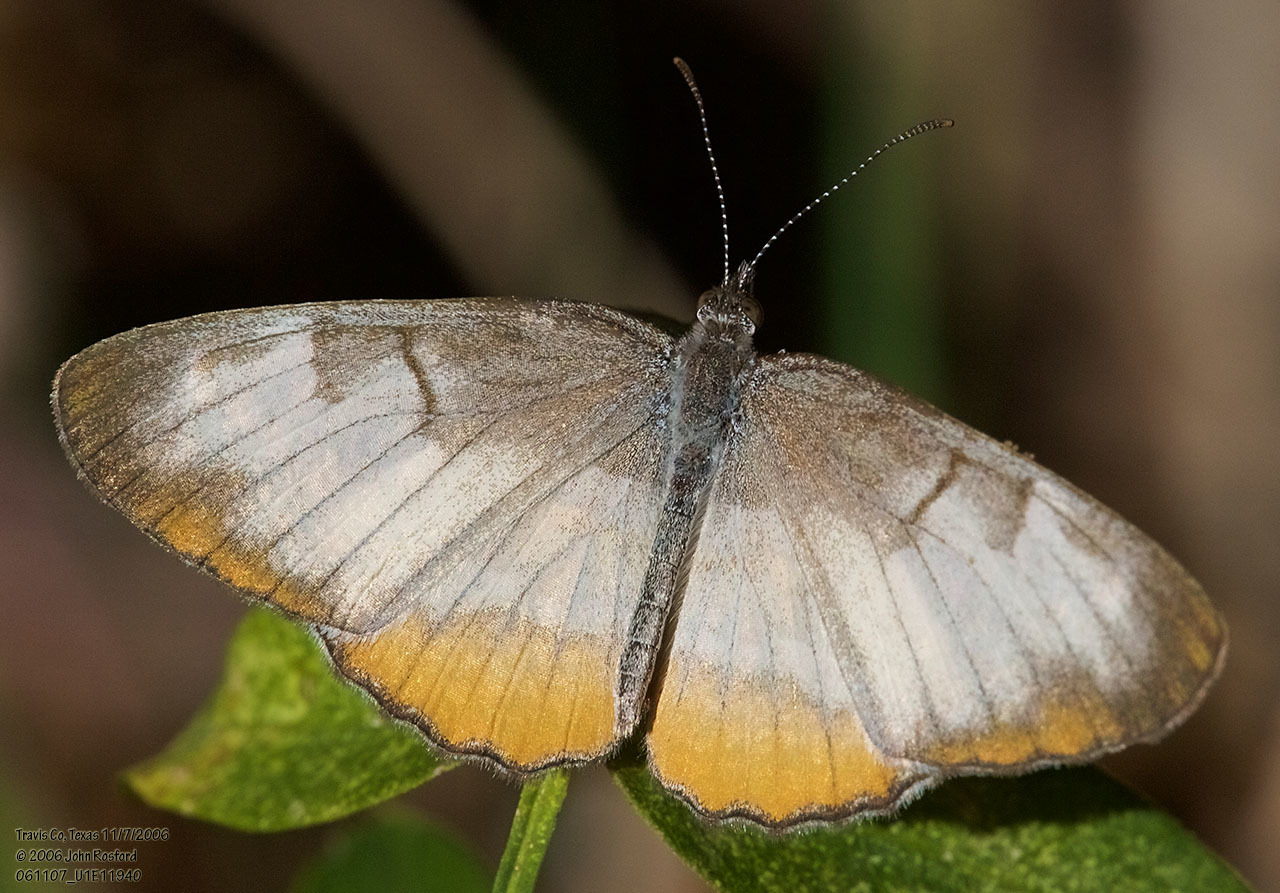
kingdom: Animalia
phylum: Arthropoda
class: Insecta
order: Lepidoptera
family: Nymphalidae
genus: Mestra
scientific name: Mestra amymone
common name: Common mestra
